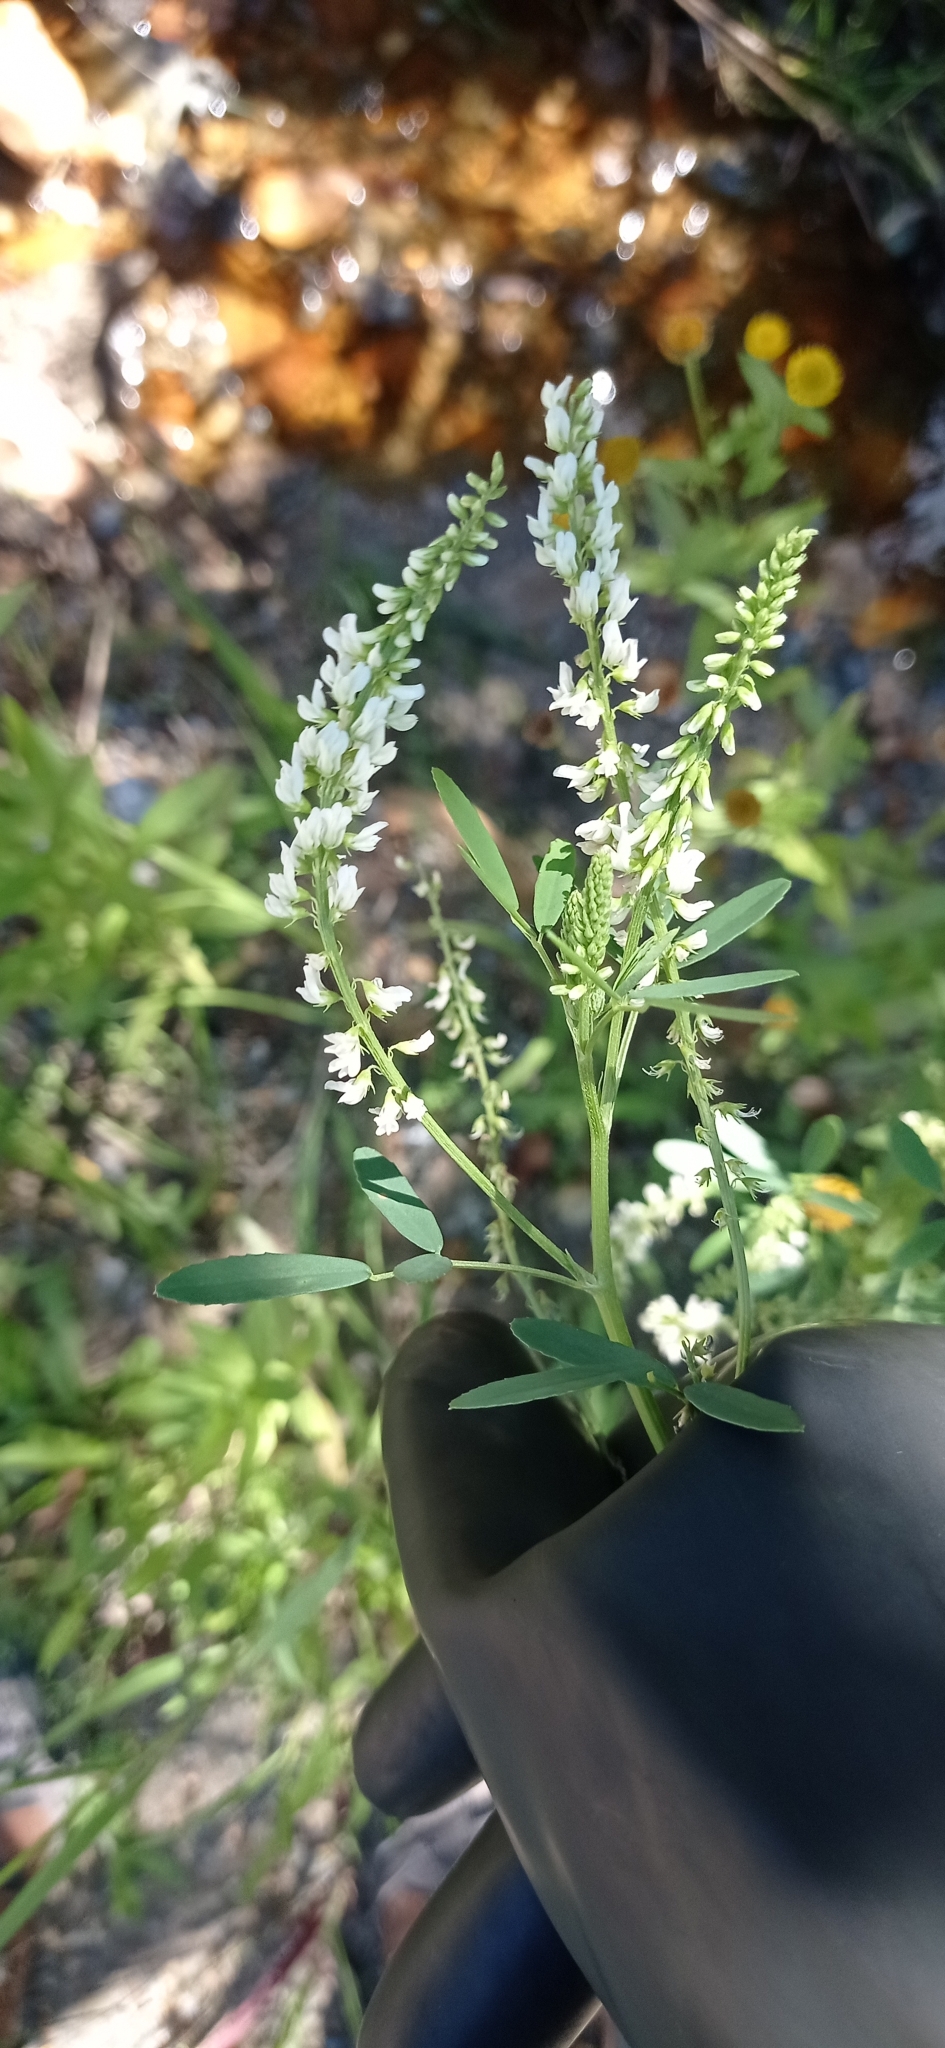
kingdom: Plantae
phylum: Tracheophyta
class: Magnoliopsida
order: Fabales
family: Fabaceae
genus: Melilotus
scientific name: Melilotus albus
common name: White melilot
